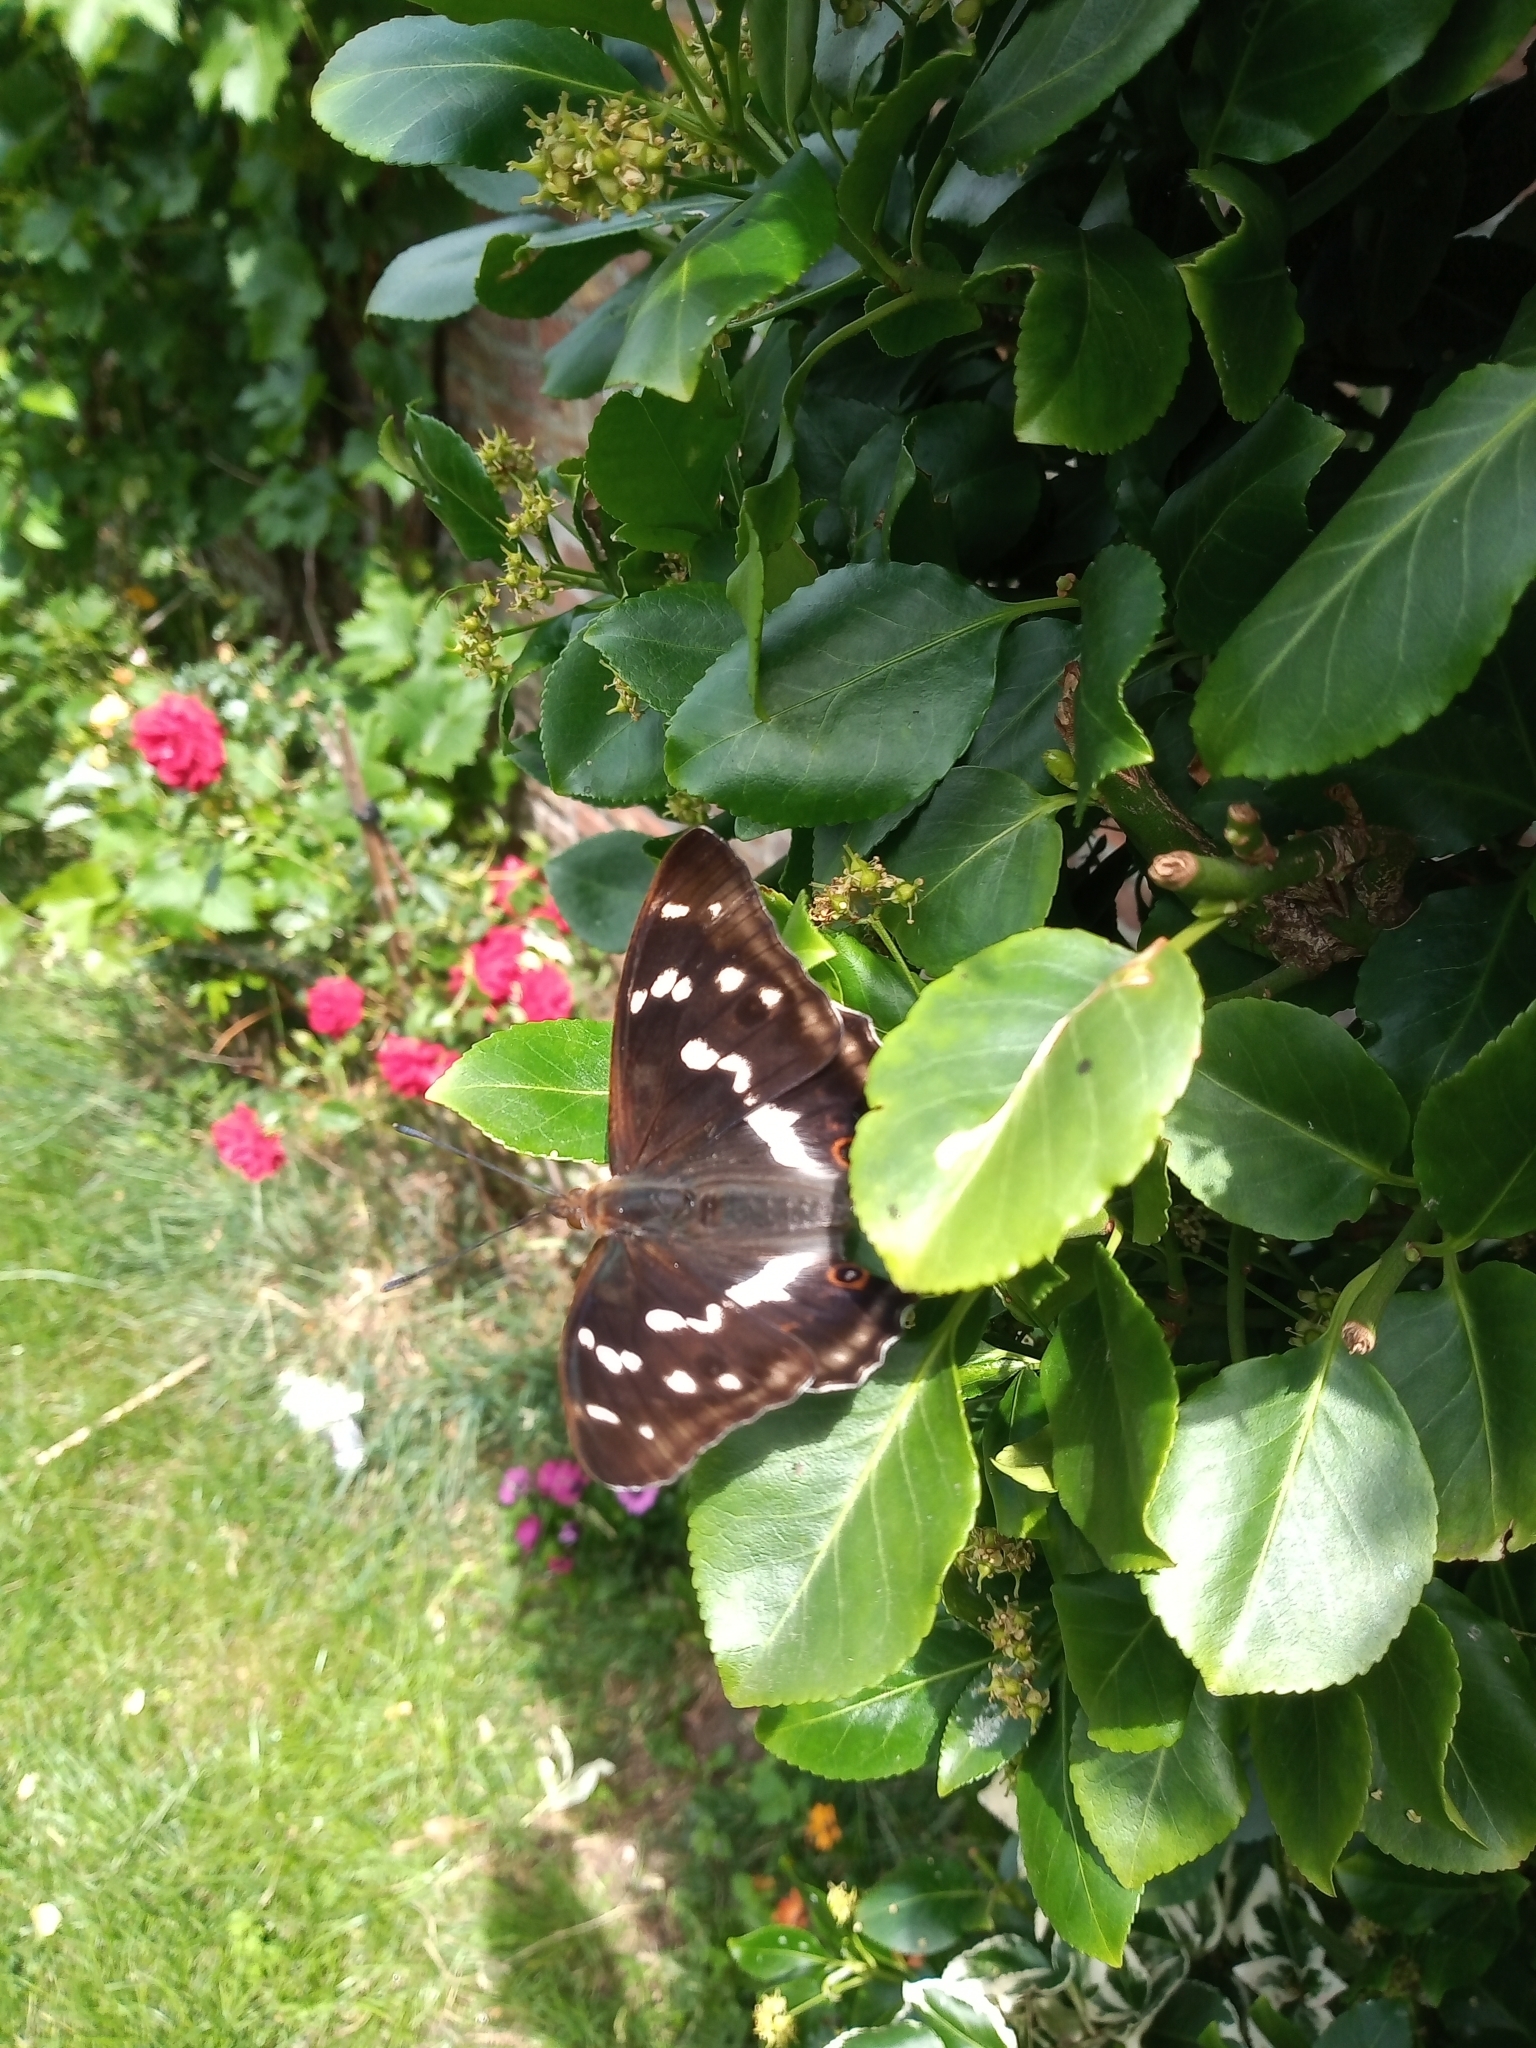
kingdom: Animalia
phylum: Arthropoda
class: Insecta
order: Lepidoptera
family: Nymphalidae
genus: Apatura
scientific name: Apatura iris
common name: Purple emperor
